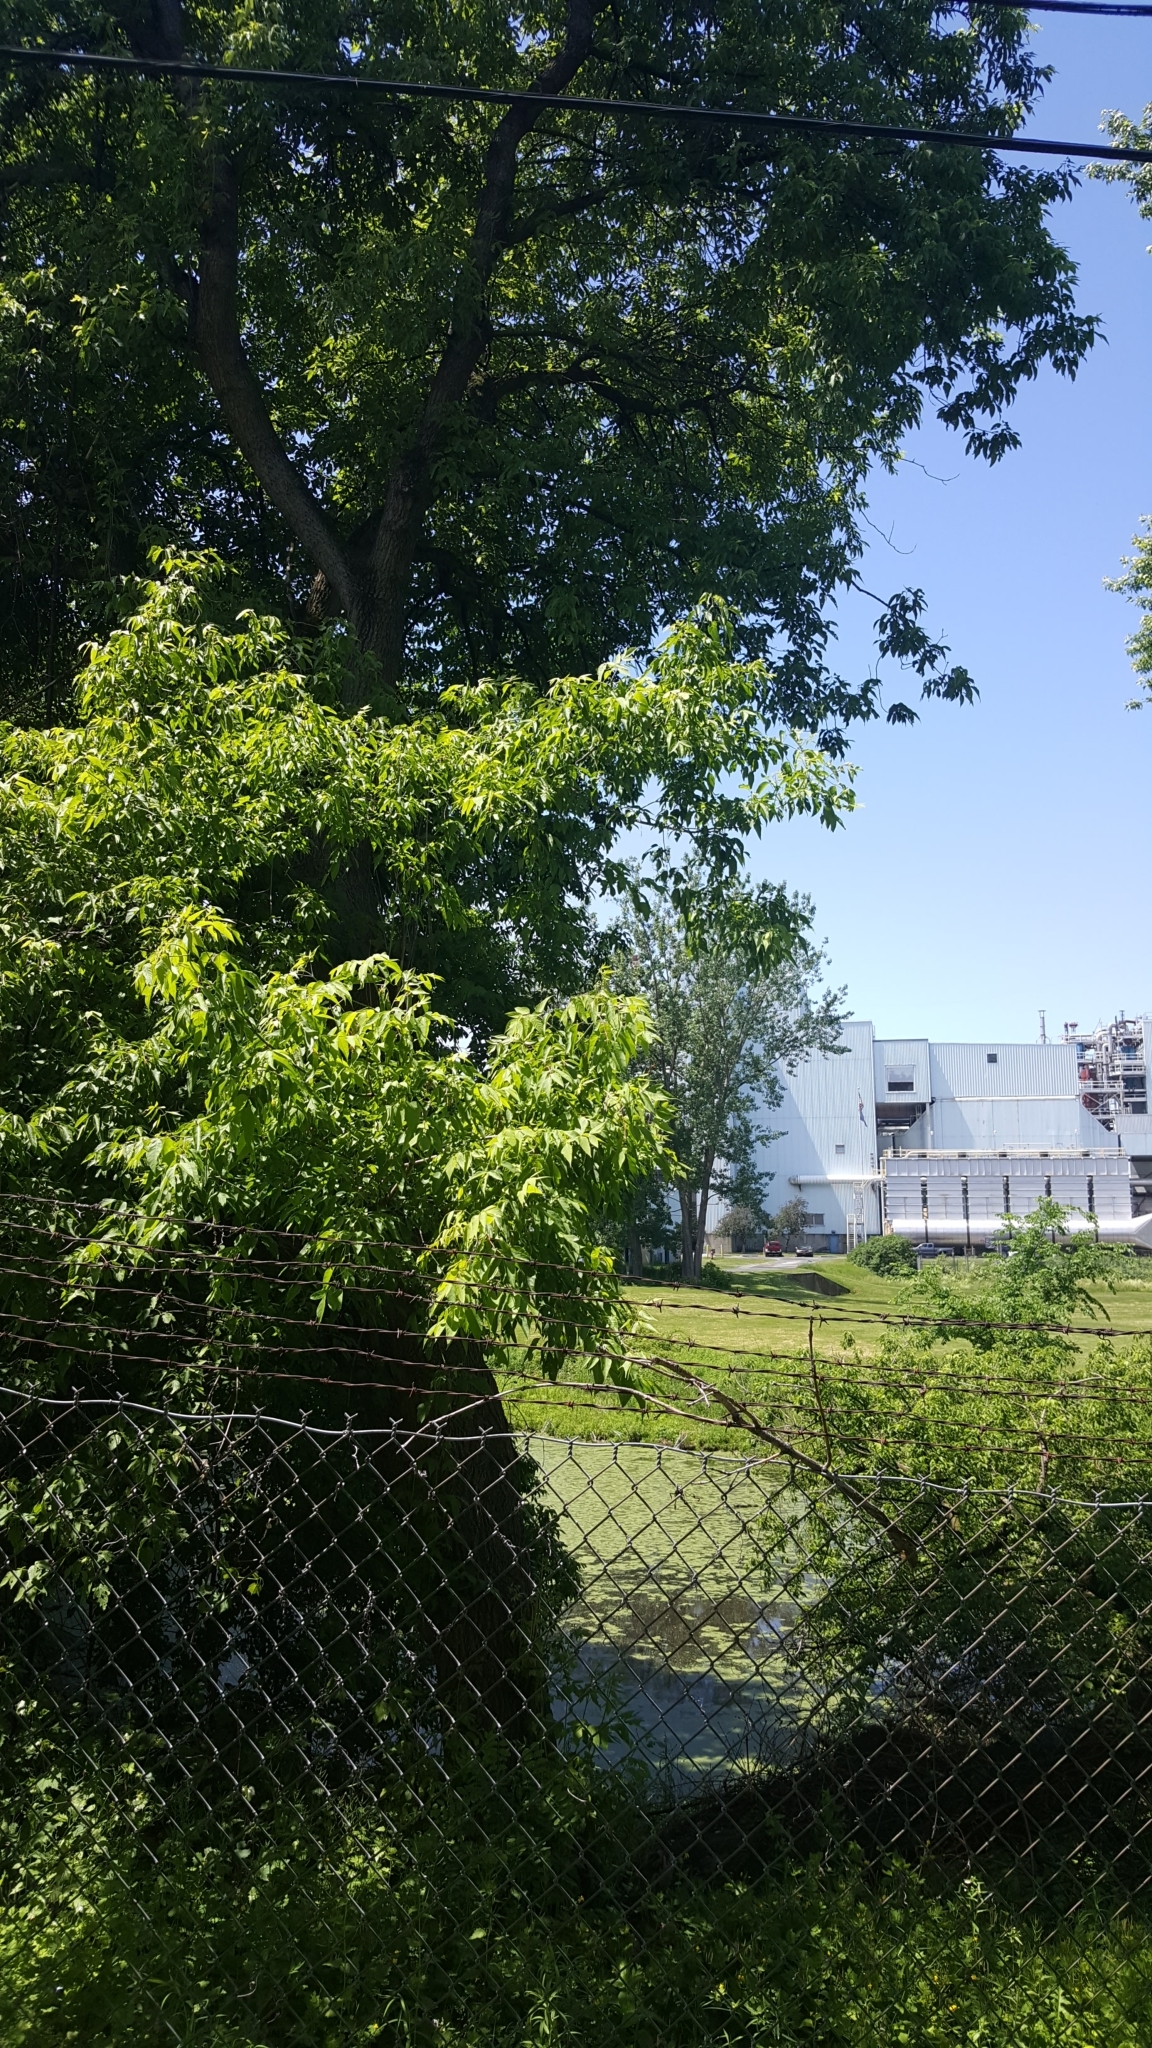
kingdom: Plantae
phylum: Tracheophyta
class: Magnoliopsida
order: Sapindales
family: Sapindaceae
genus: Acer
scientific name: Acer negundo
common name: Ashleaf maple
